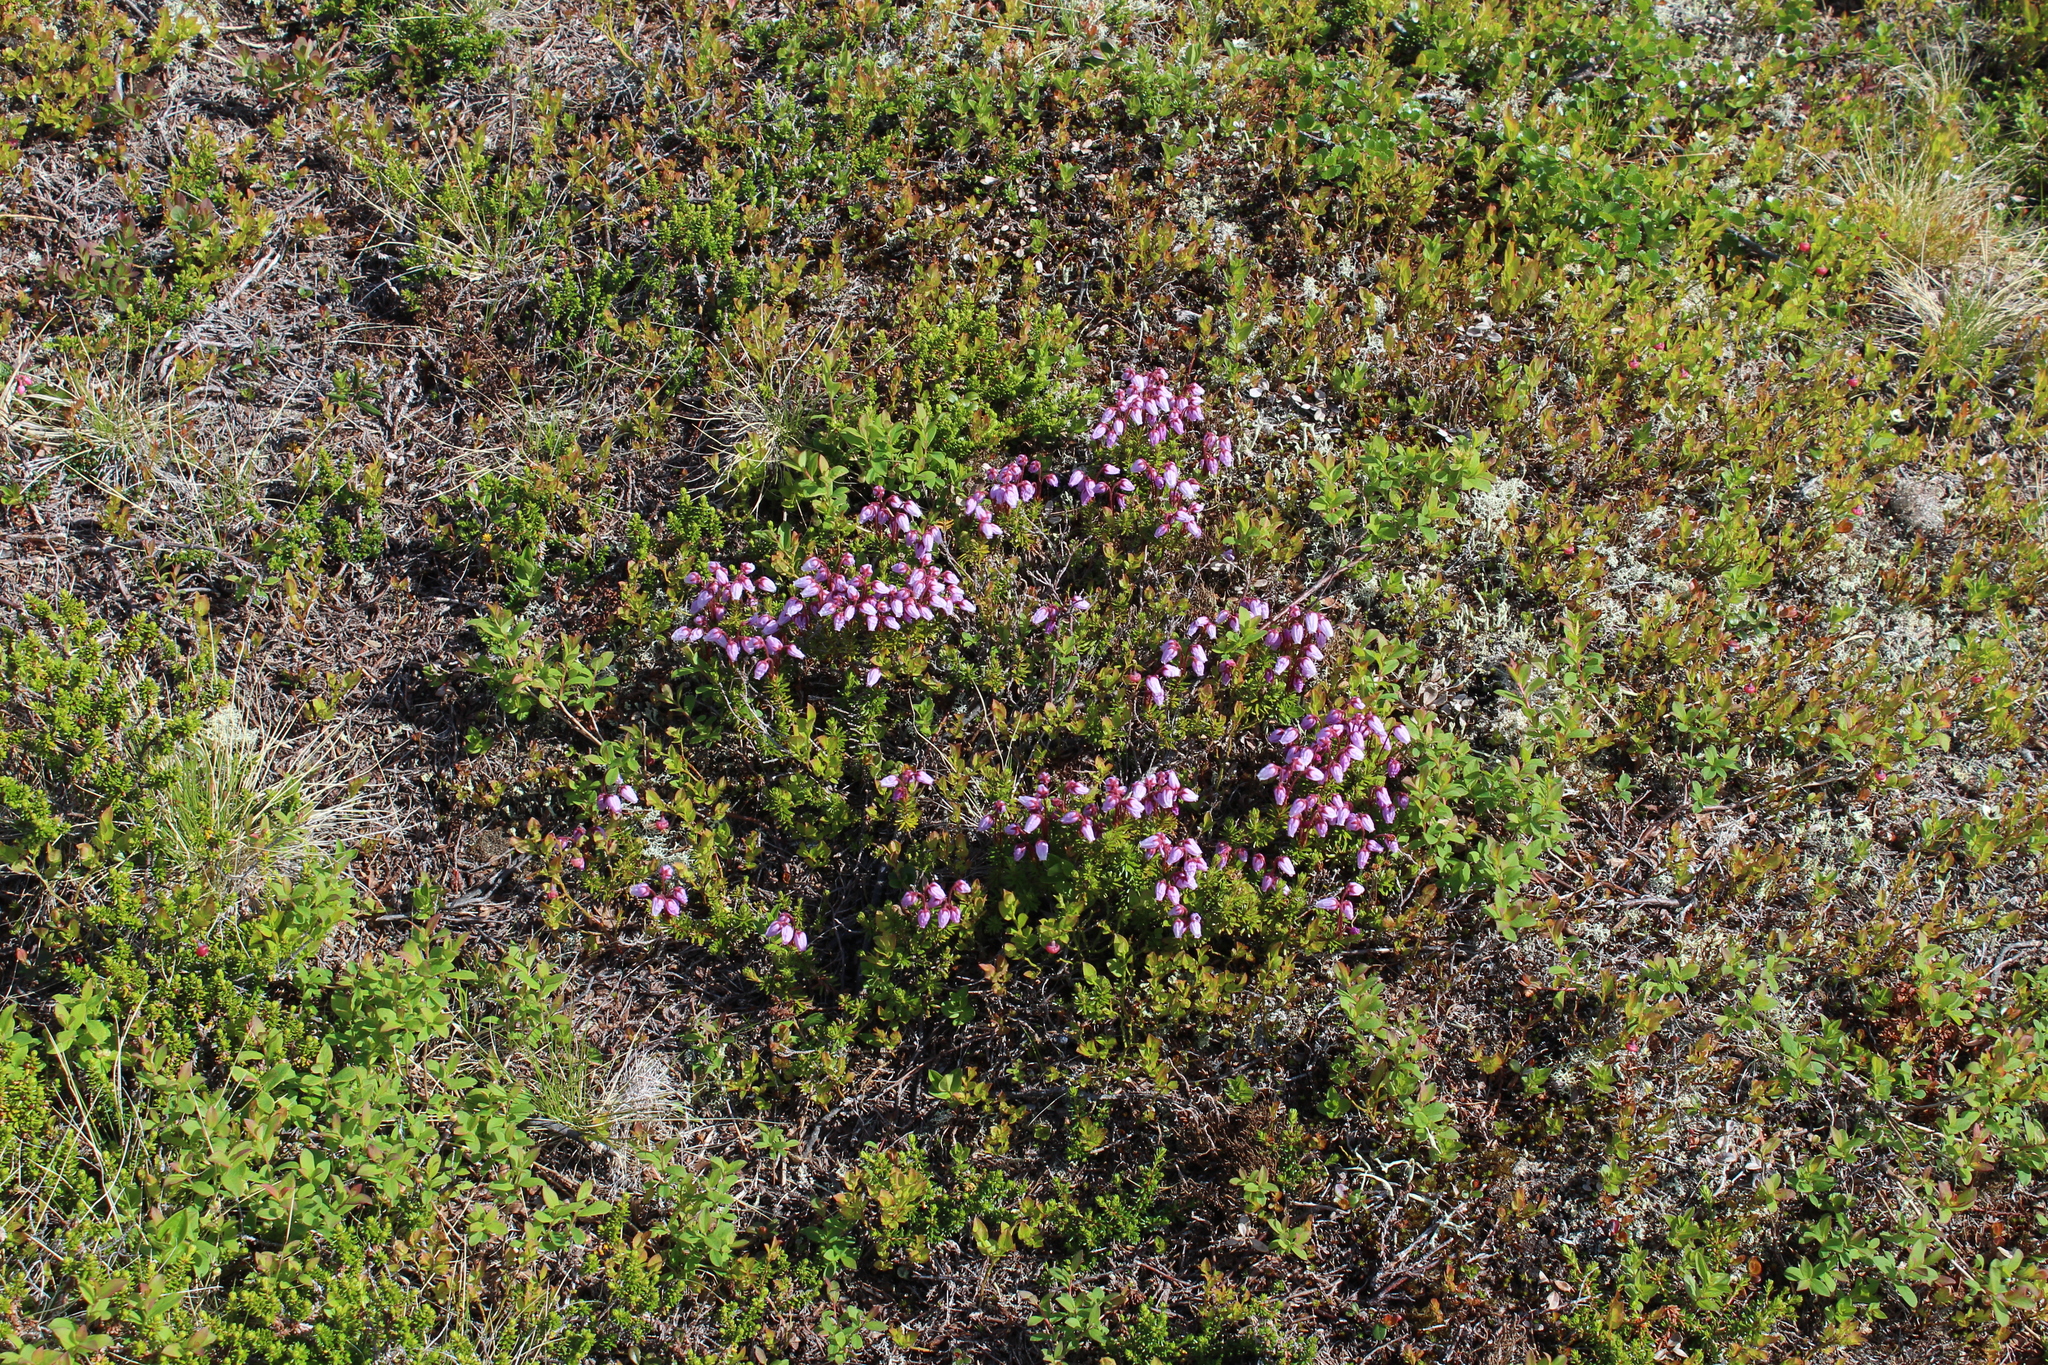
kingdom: Plantae
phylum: Tracheophyta
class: Magnoliopsida
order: Ericales
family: Ericaceae
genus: Phyllodoce
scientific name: Phyllodoce caerulea
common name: Blue heath
